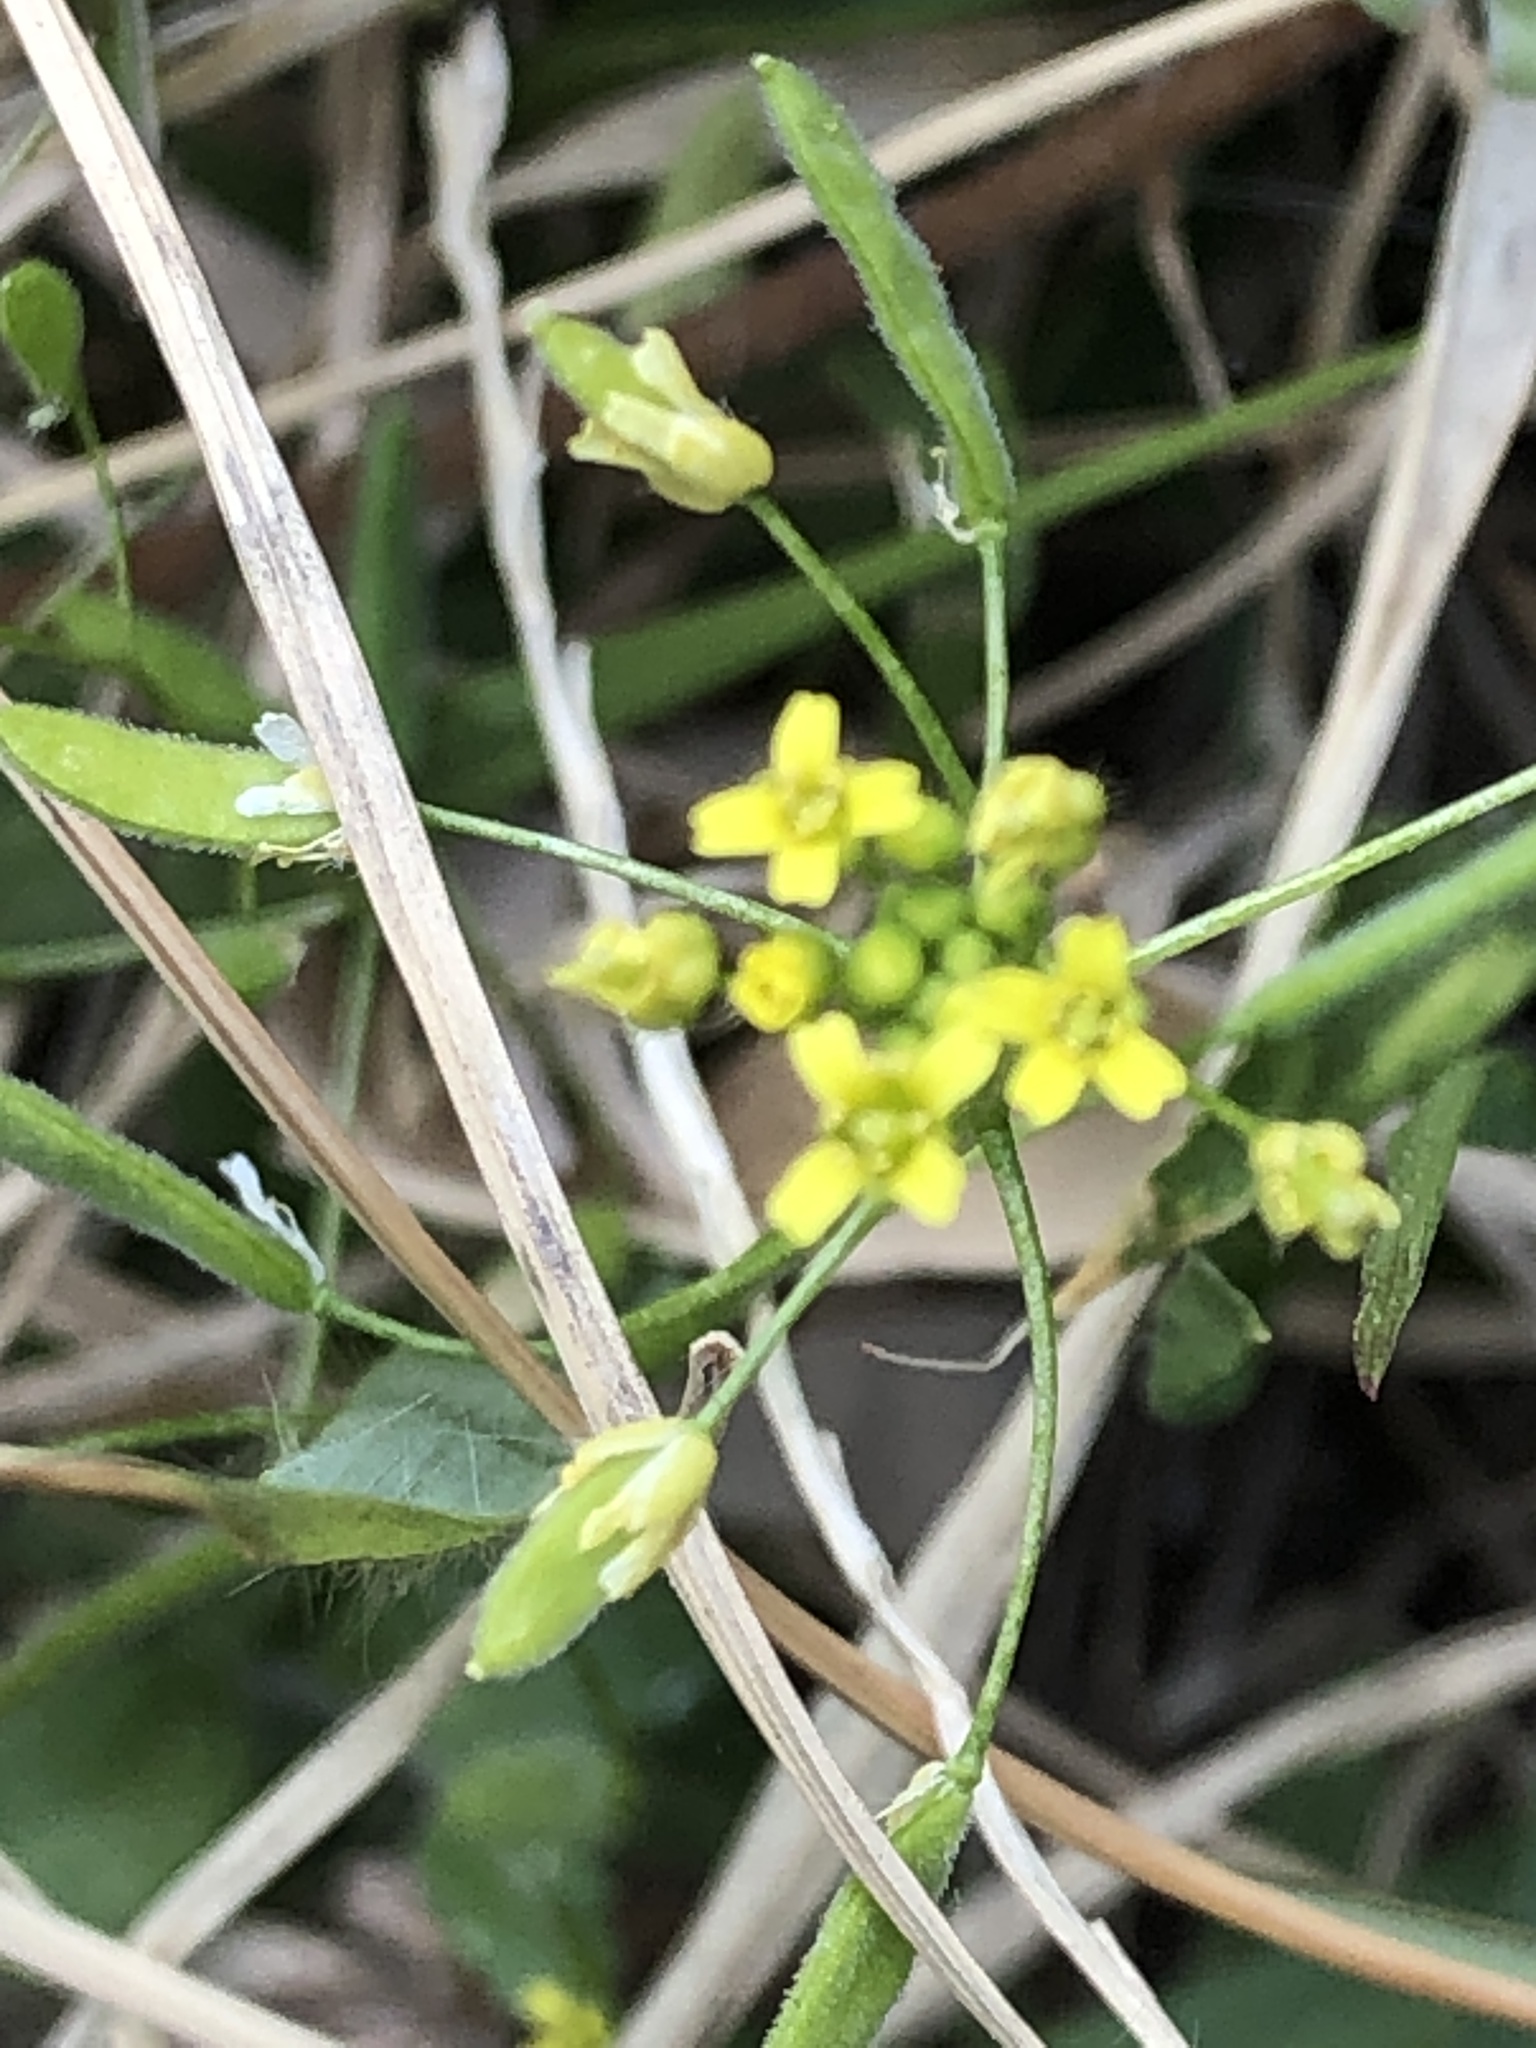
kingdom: Plantae
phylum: Tracheophyta
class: Magnoliopsida
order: Brassicales
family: Brassicaceae
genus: Draba
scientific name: Draba nemorosa
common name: Wood whitlow-grass
